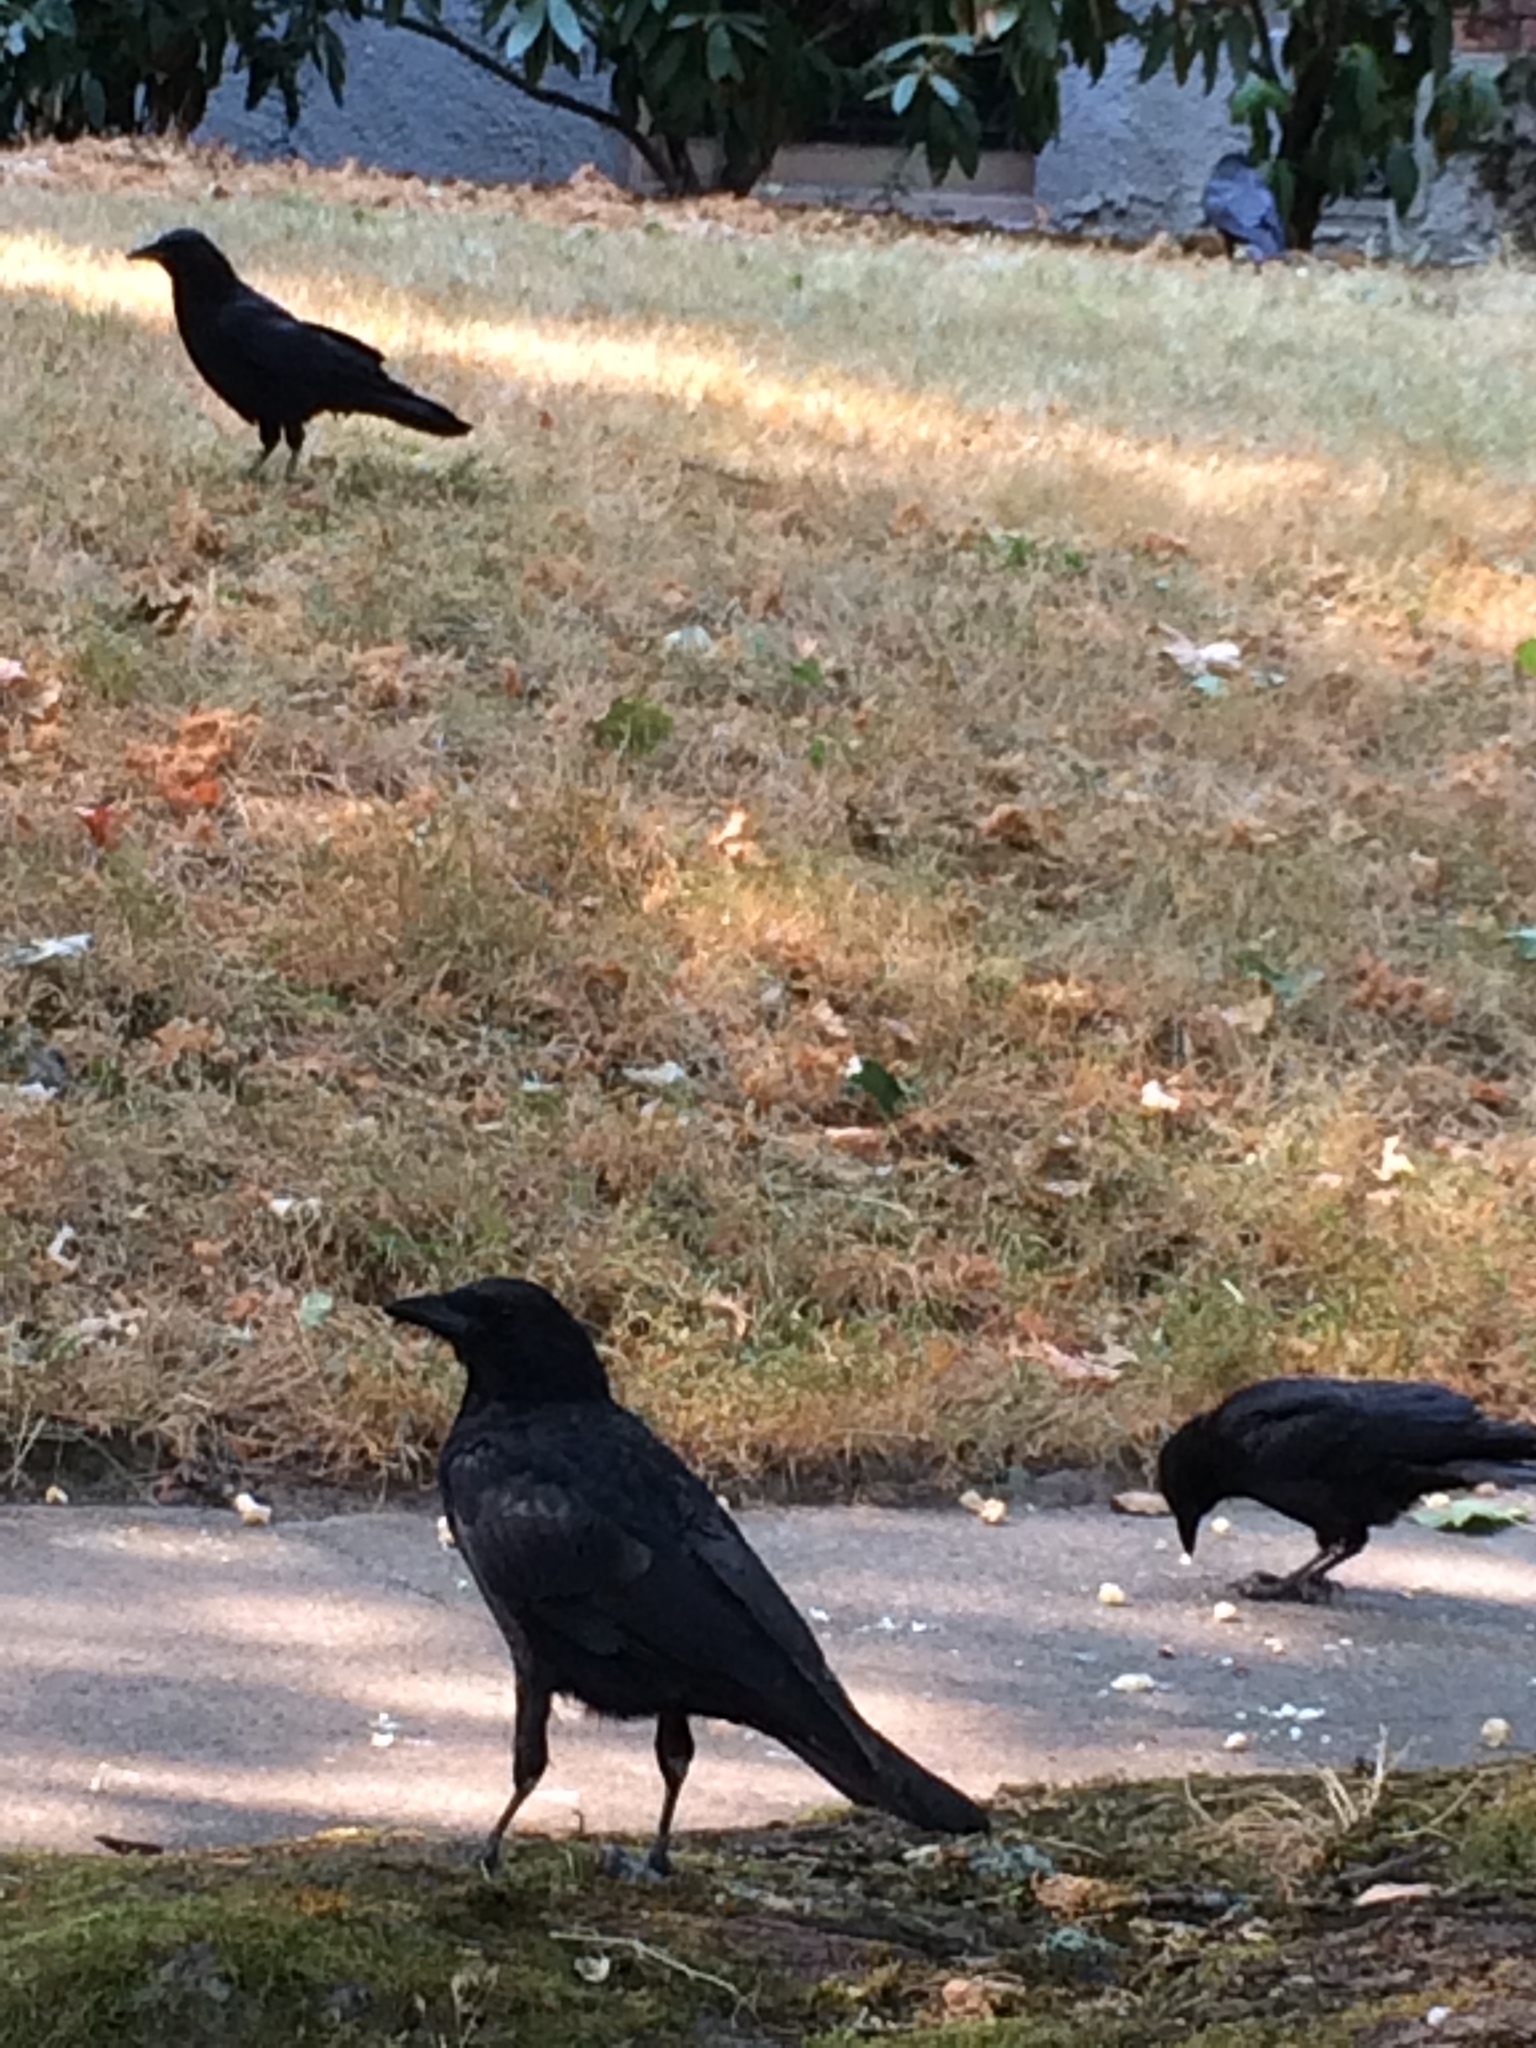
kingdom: Animalia
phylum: Chordata
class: Aves
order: Passeriformes
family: Corvidae
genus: Corvus
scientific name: Corvus brachyrhynchos
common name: American crow
